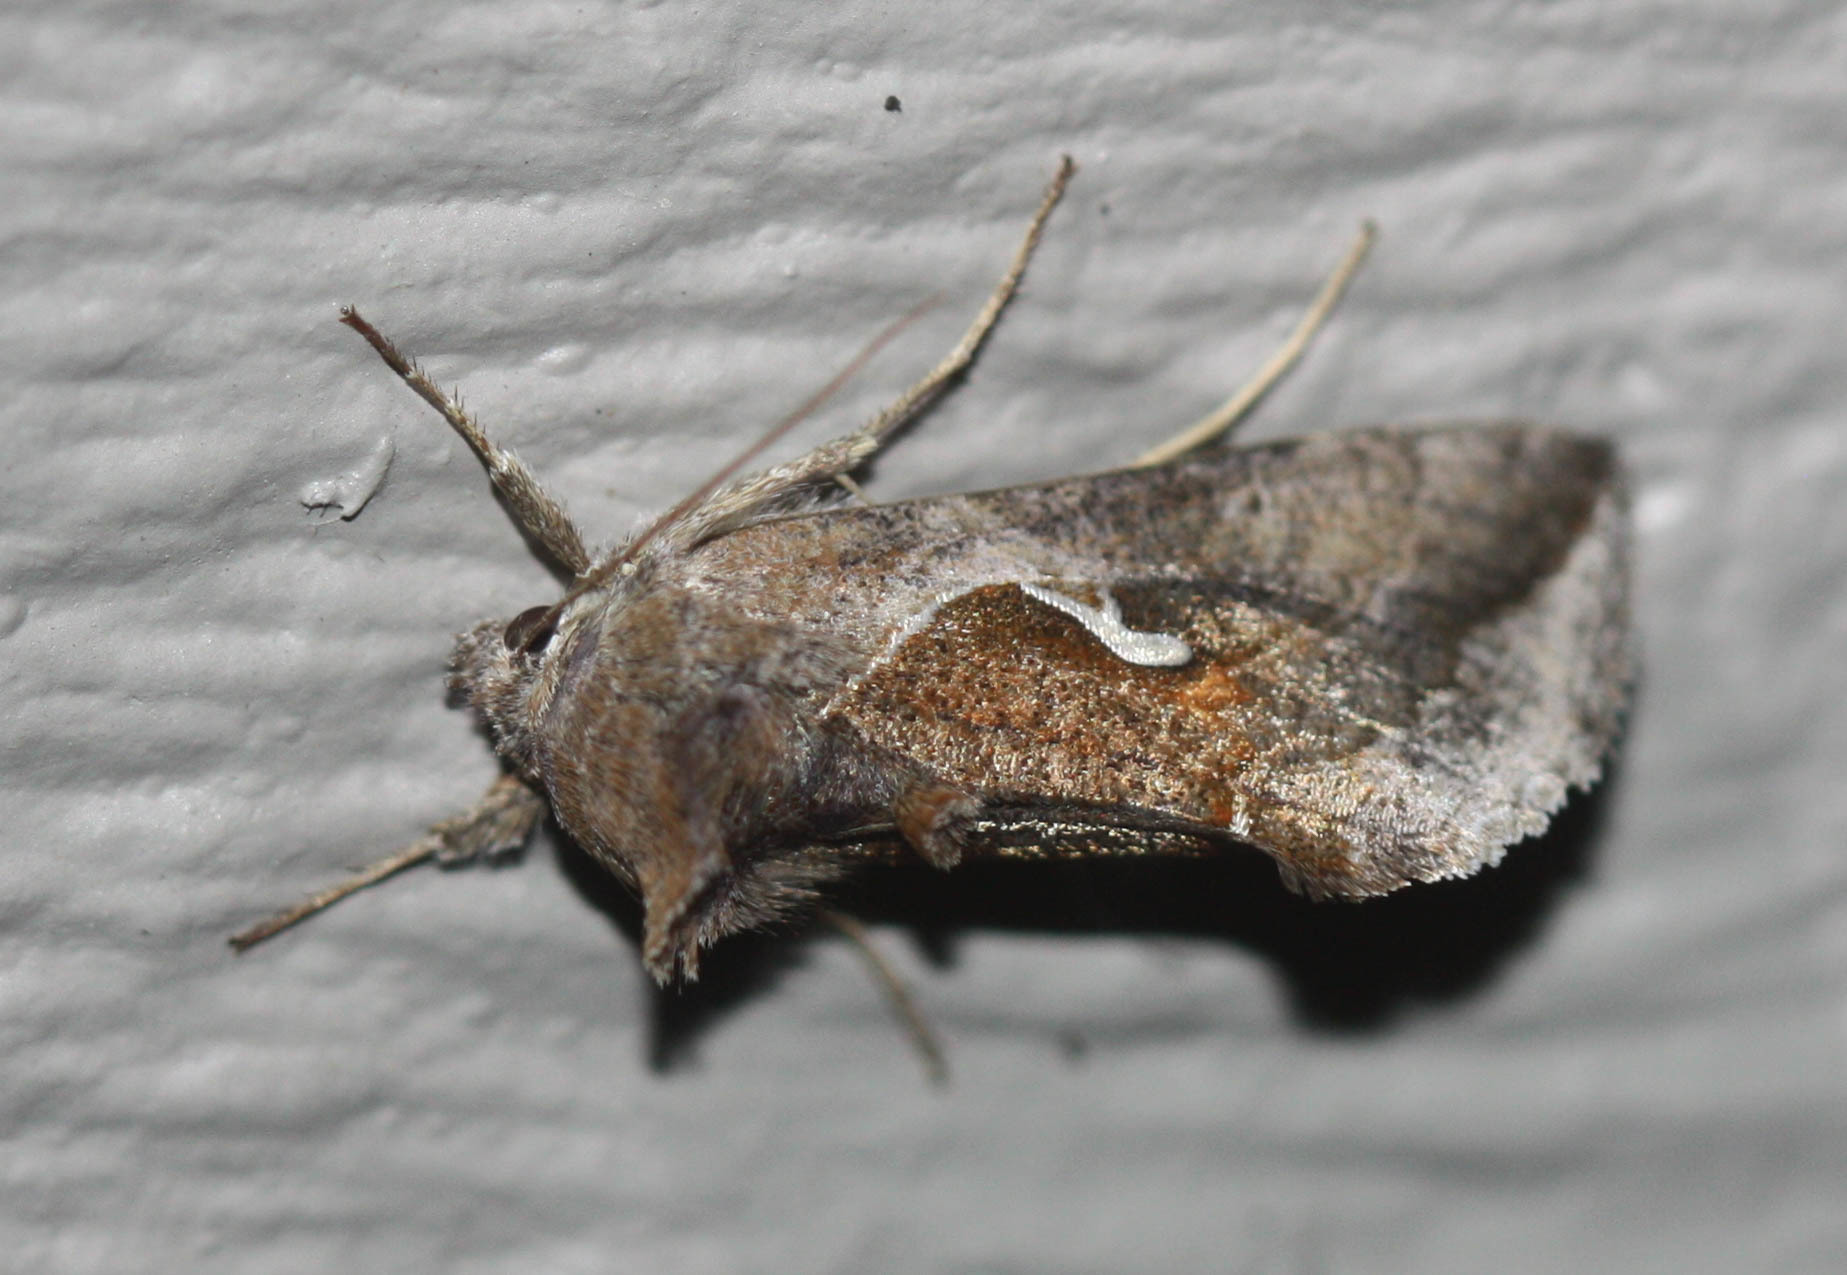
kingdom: Animalia
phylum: Arthropoda
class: Insecta
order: Lepidoptera
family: Noctuidae
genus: Anagrapha
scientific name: Anagrapha falcifera
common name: Celery looper
